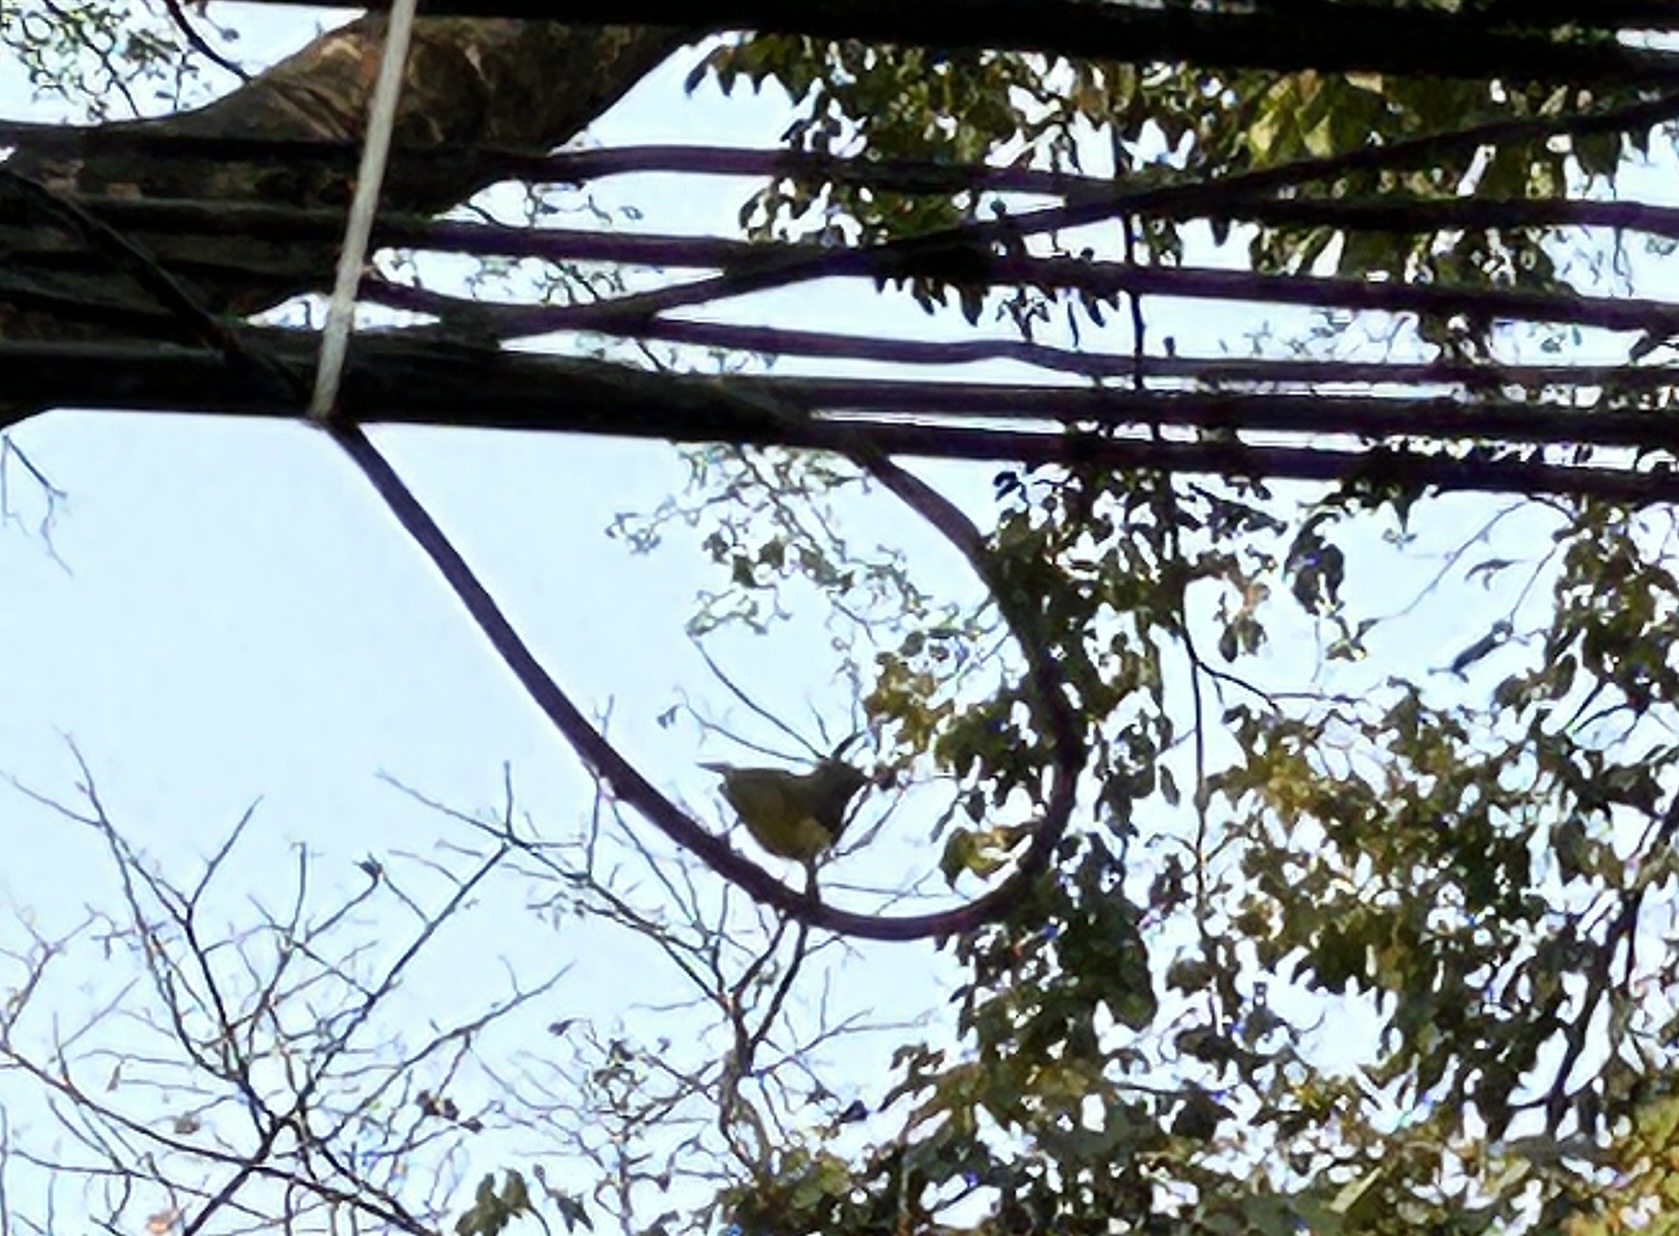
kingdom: Animalia
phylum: Chordata
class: Aves
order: Passeriformes
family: Nectariniidae
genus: Cinnyris
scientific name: Cinnyris
